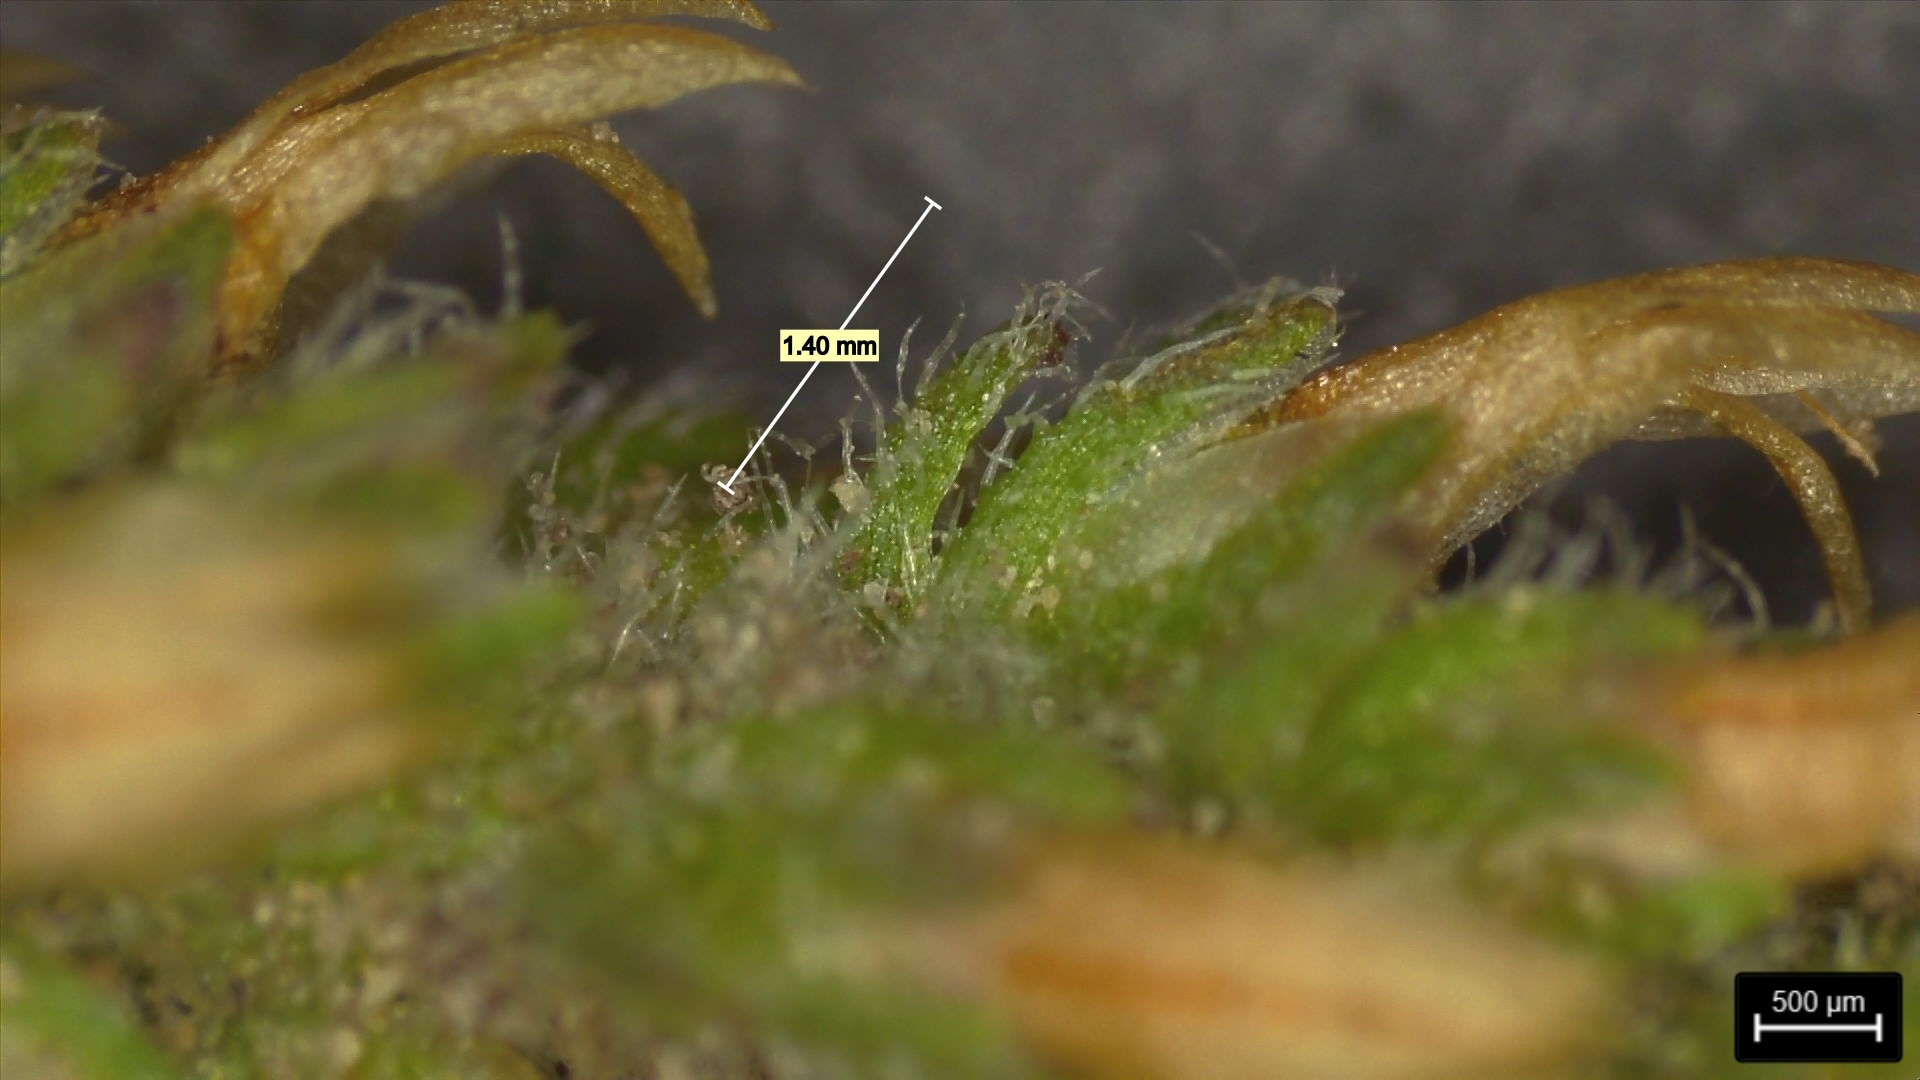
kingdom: Plantae
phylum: Tracheophyta
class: Magnoliopsida
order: Lamiales
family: Plantaginaceae
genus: Plantago
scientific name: Plantago virginica
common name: Hoary plantain
